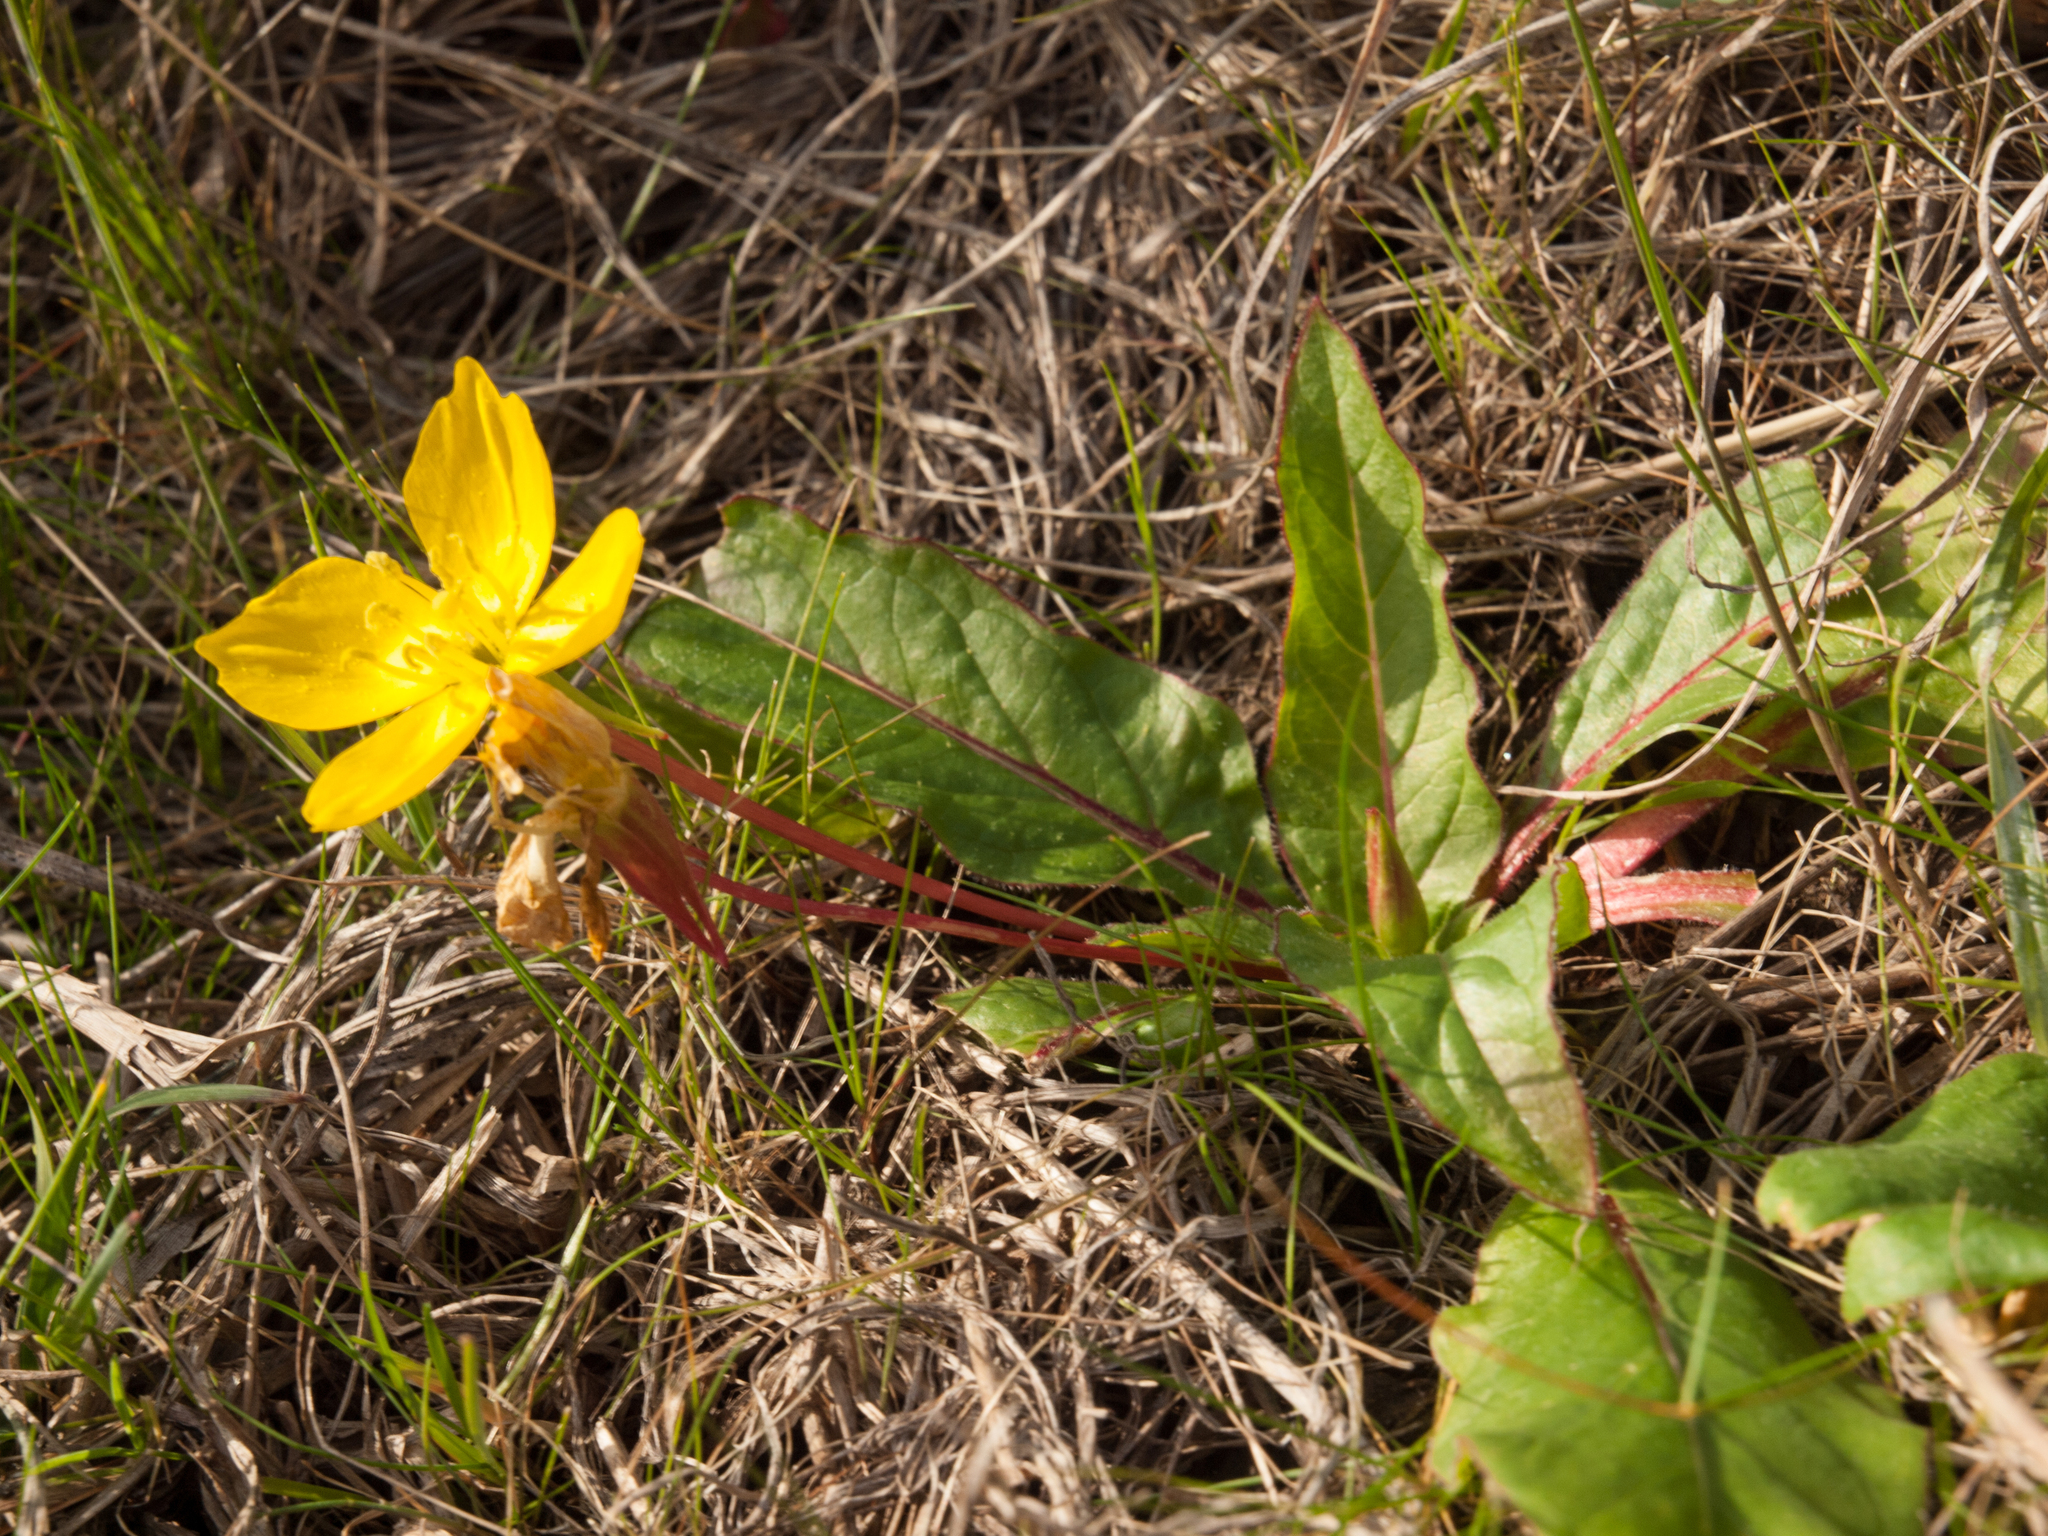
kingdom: Plantae
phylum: Tracheophyta
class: Magnoliopsida
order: Myrtales
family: Onagraceae
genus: Taraxia
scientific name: Taraxia ovata
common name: Goldeneggs
